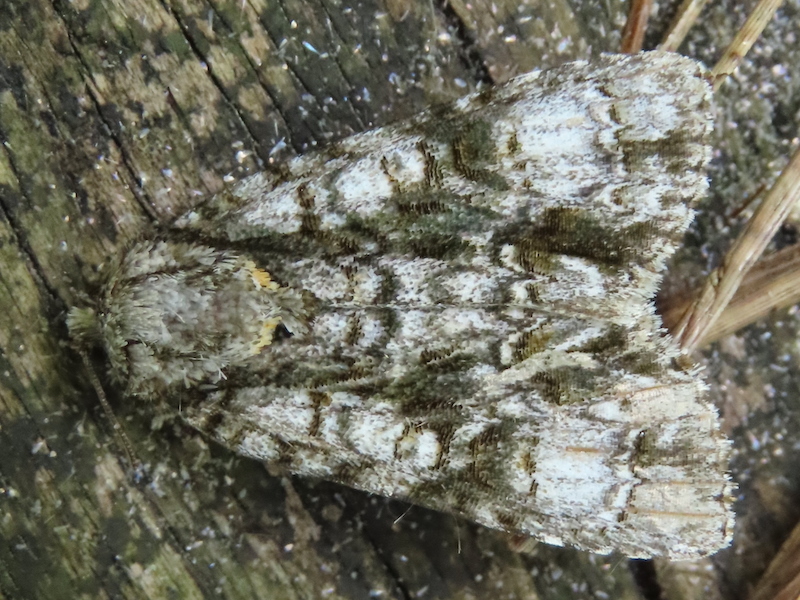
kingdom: Animalia
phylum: Arthropoda
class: Insecta
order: Lepidoptera
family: Noctuidae
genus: Acronicta
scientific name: Acronicta superans
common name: Splendid dagger
